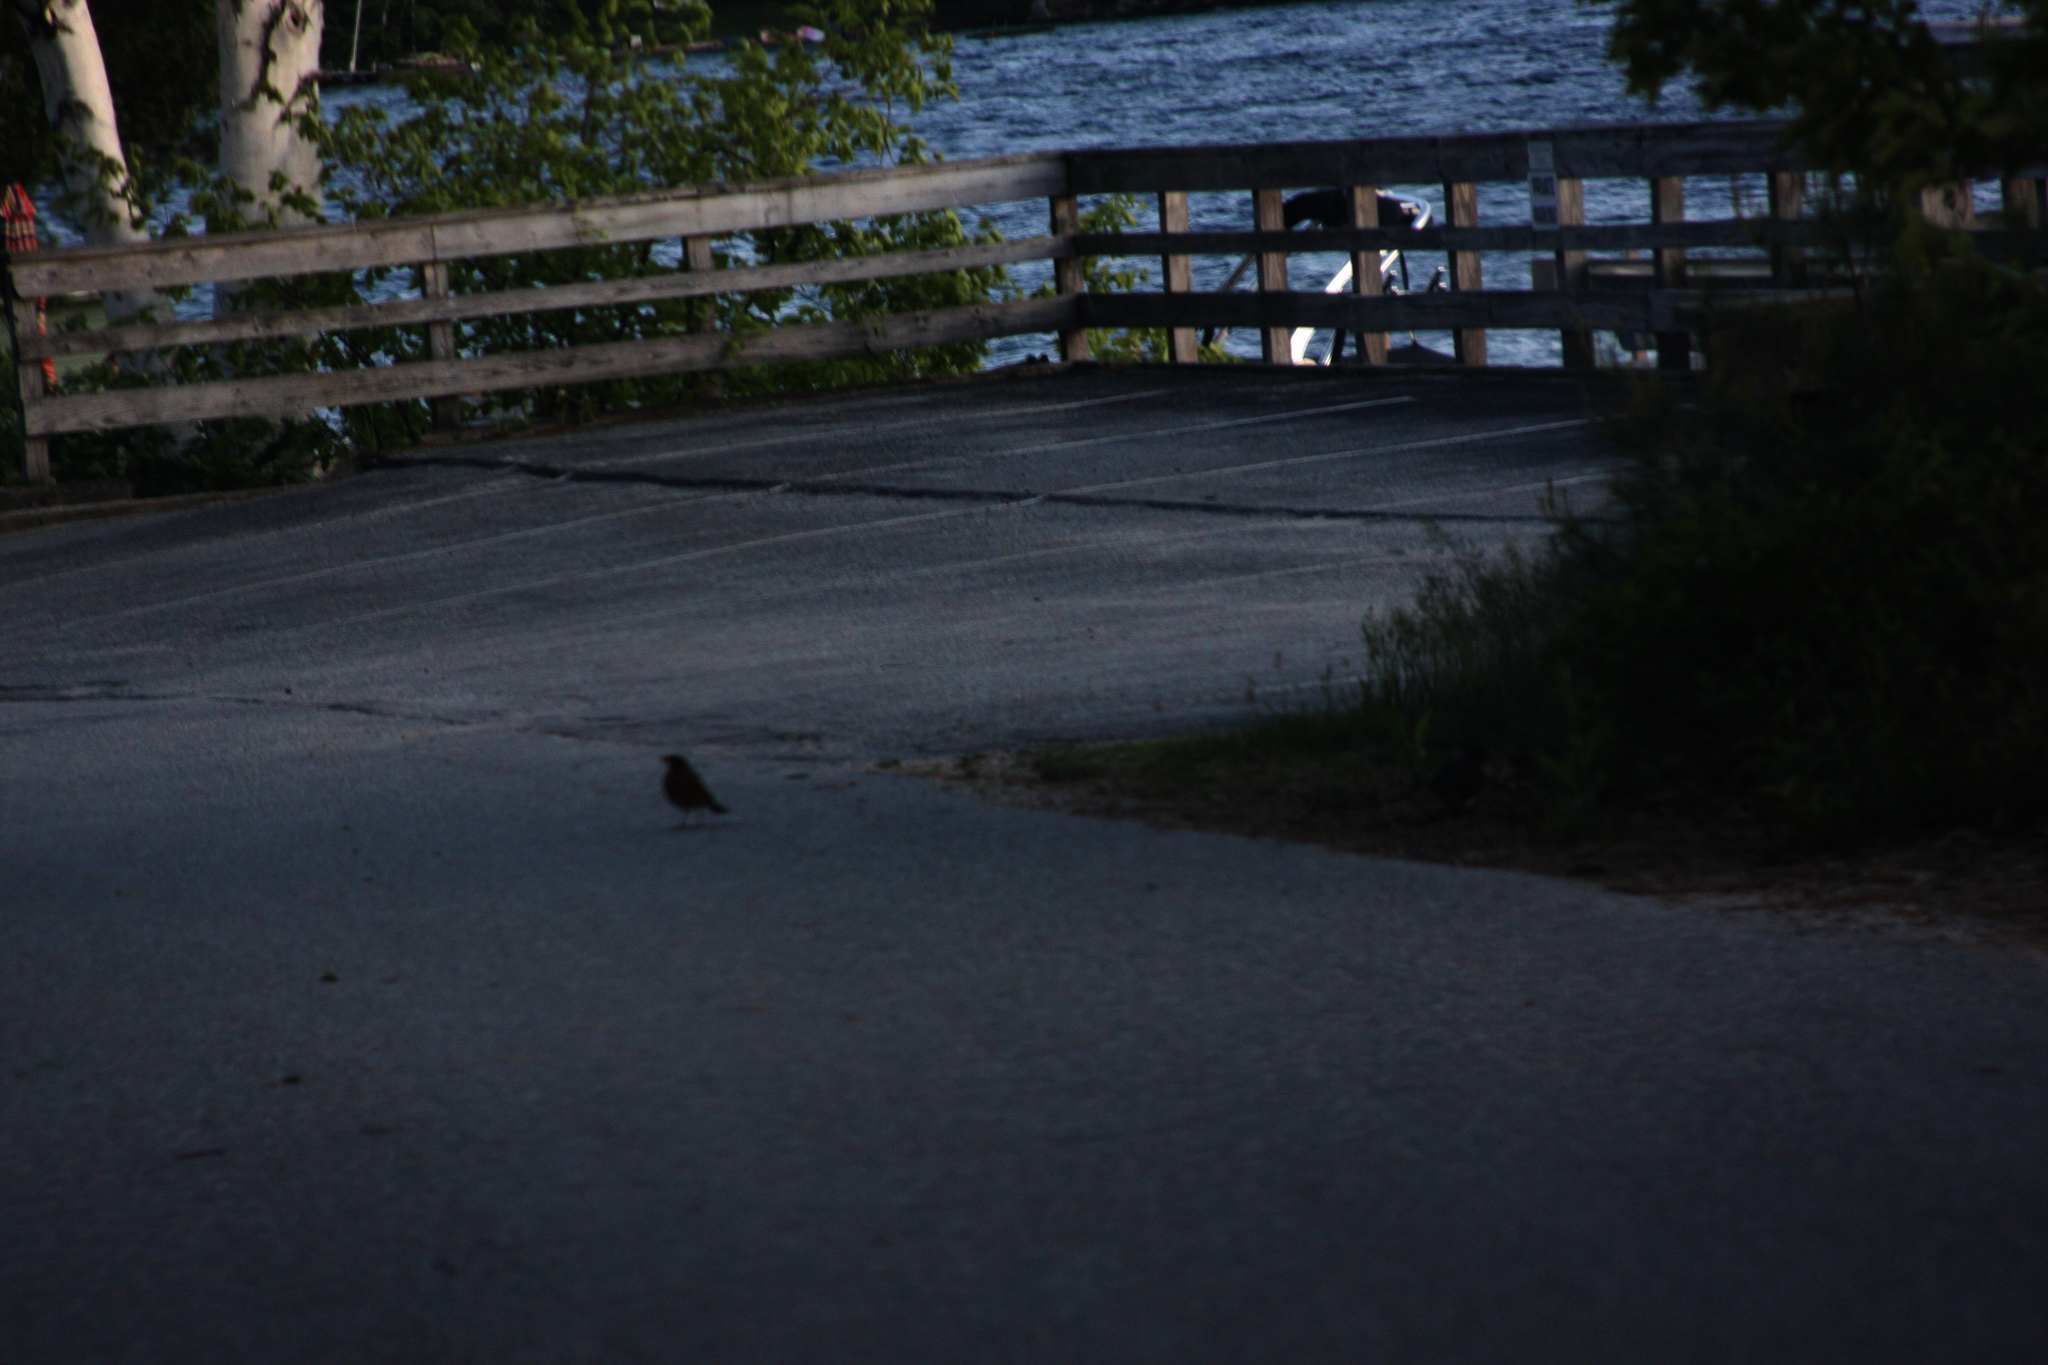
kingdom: Animalia
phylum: Chordata
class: Aves
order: Passeriformes
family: Turdidae
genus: Turdus
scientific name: Turdus migratorius
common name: American robin
